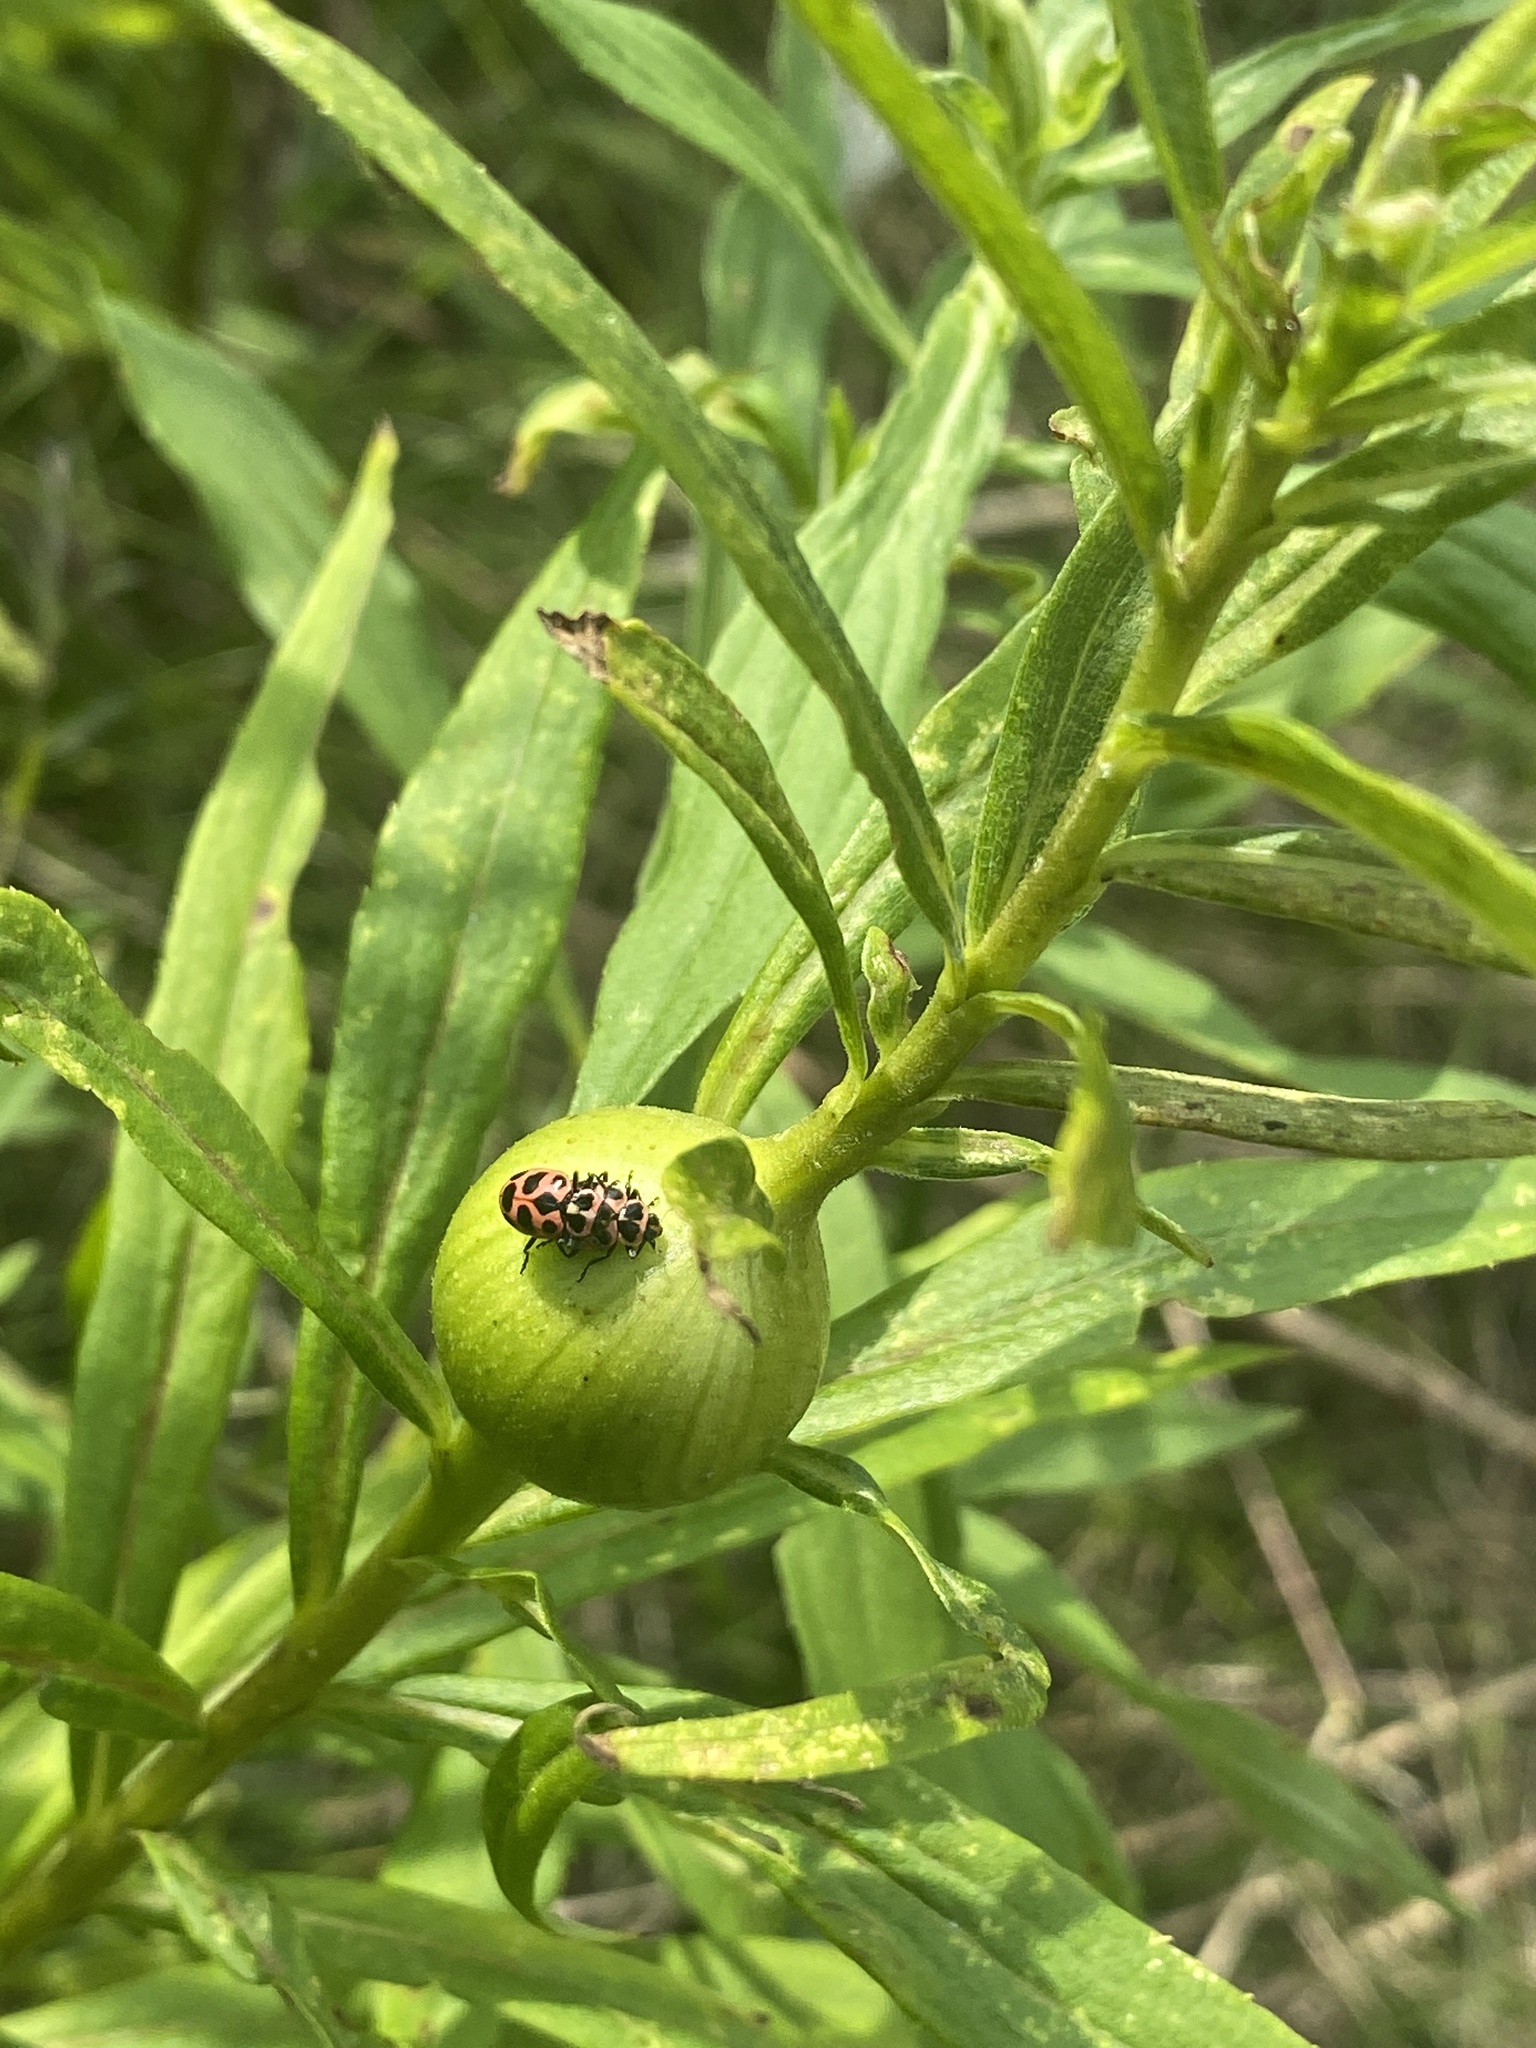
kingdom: Animalia
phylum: Arthropoda
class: Insecta
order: Coleoptera
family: Coccinellidae
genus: Coleomegilla
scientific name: Coleomegilla maculata
